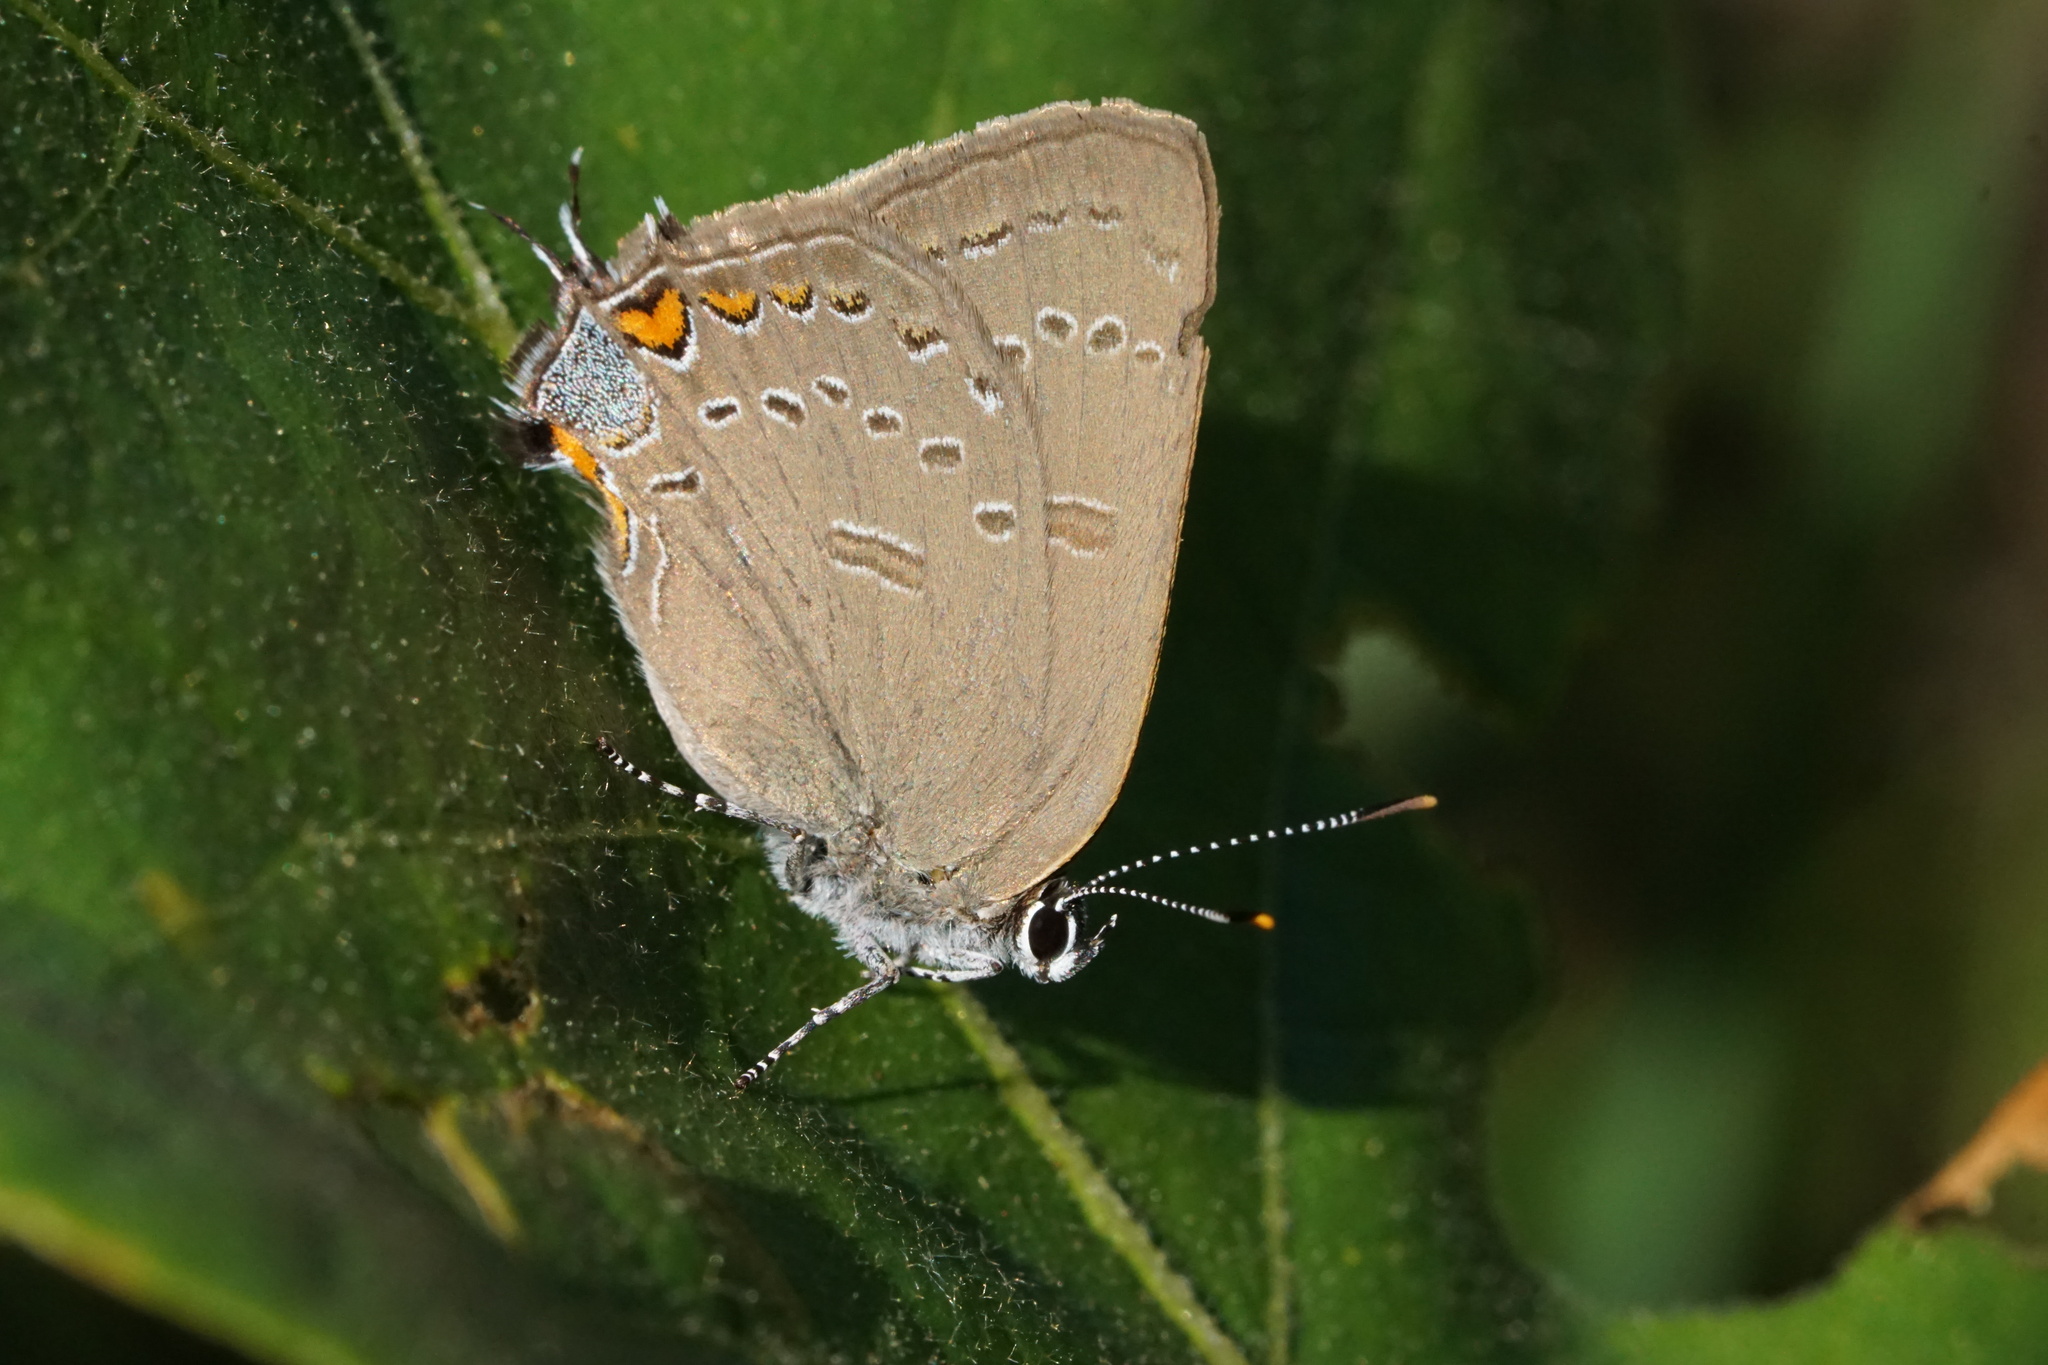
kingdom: Animalia
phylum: Arthropoda
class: Insecta
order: Lepidoptera
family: Lycaenidae
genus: Satyrium
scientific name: Satyrium edwardsii
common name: Edwards' hairstreak
